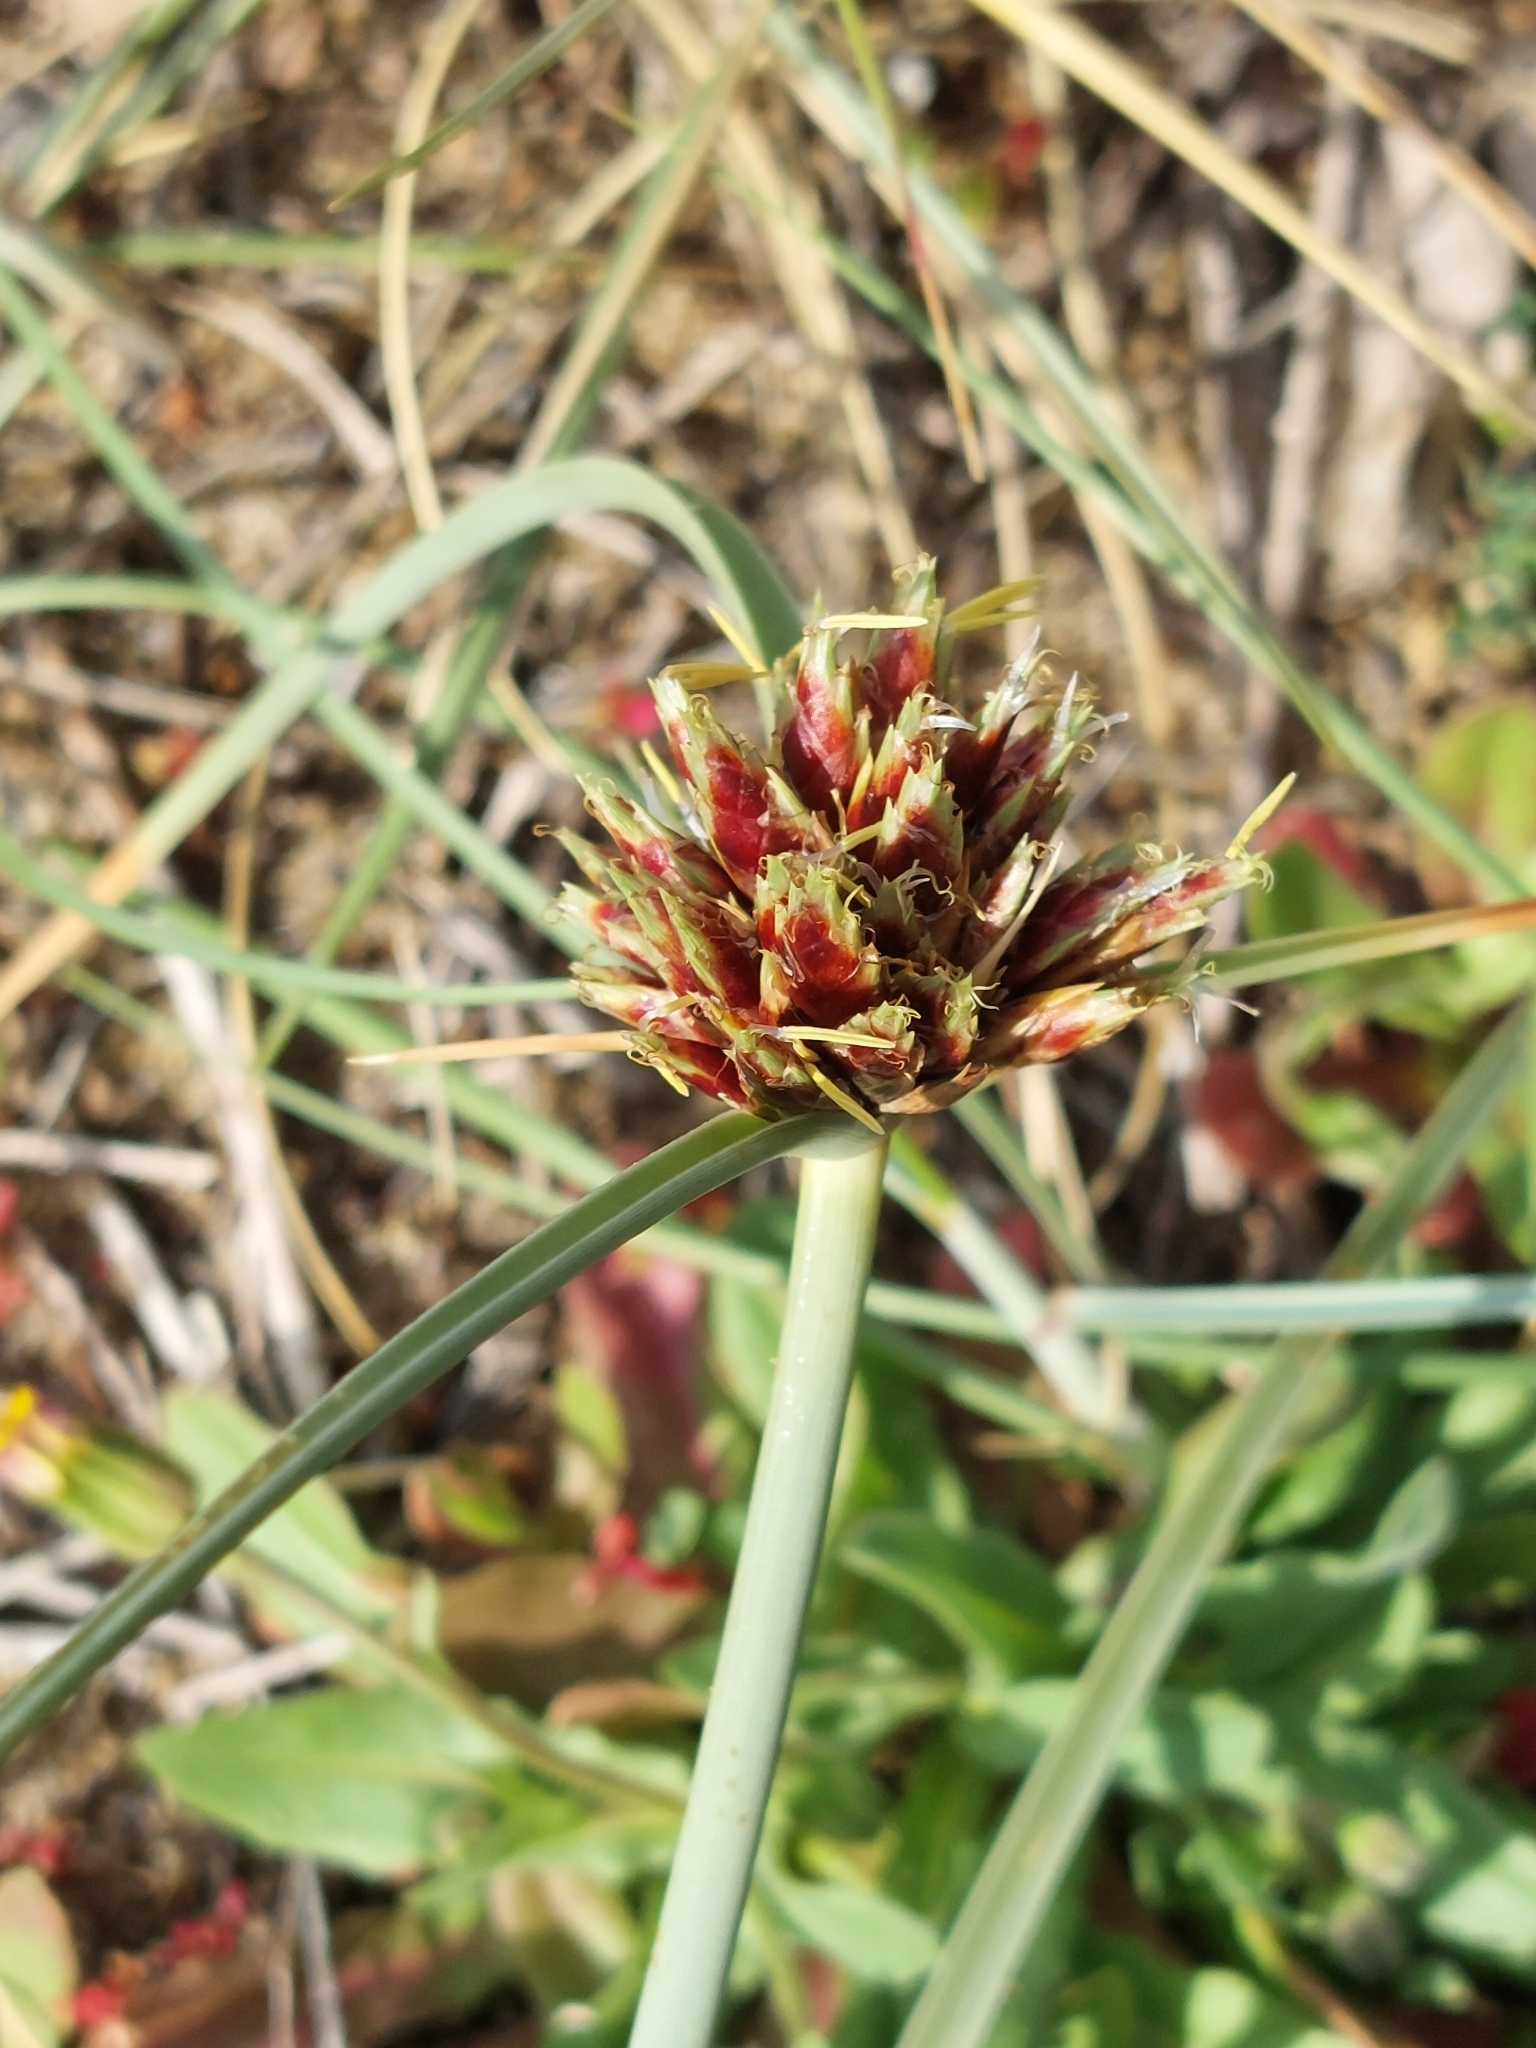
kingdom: Plantae
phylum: Tracheophyta
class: Liliopsida
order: Poales
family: Cyperaceae
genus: Cyperus
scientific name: Cyperus capitatus
